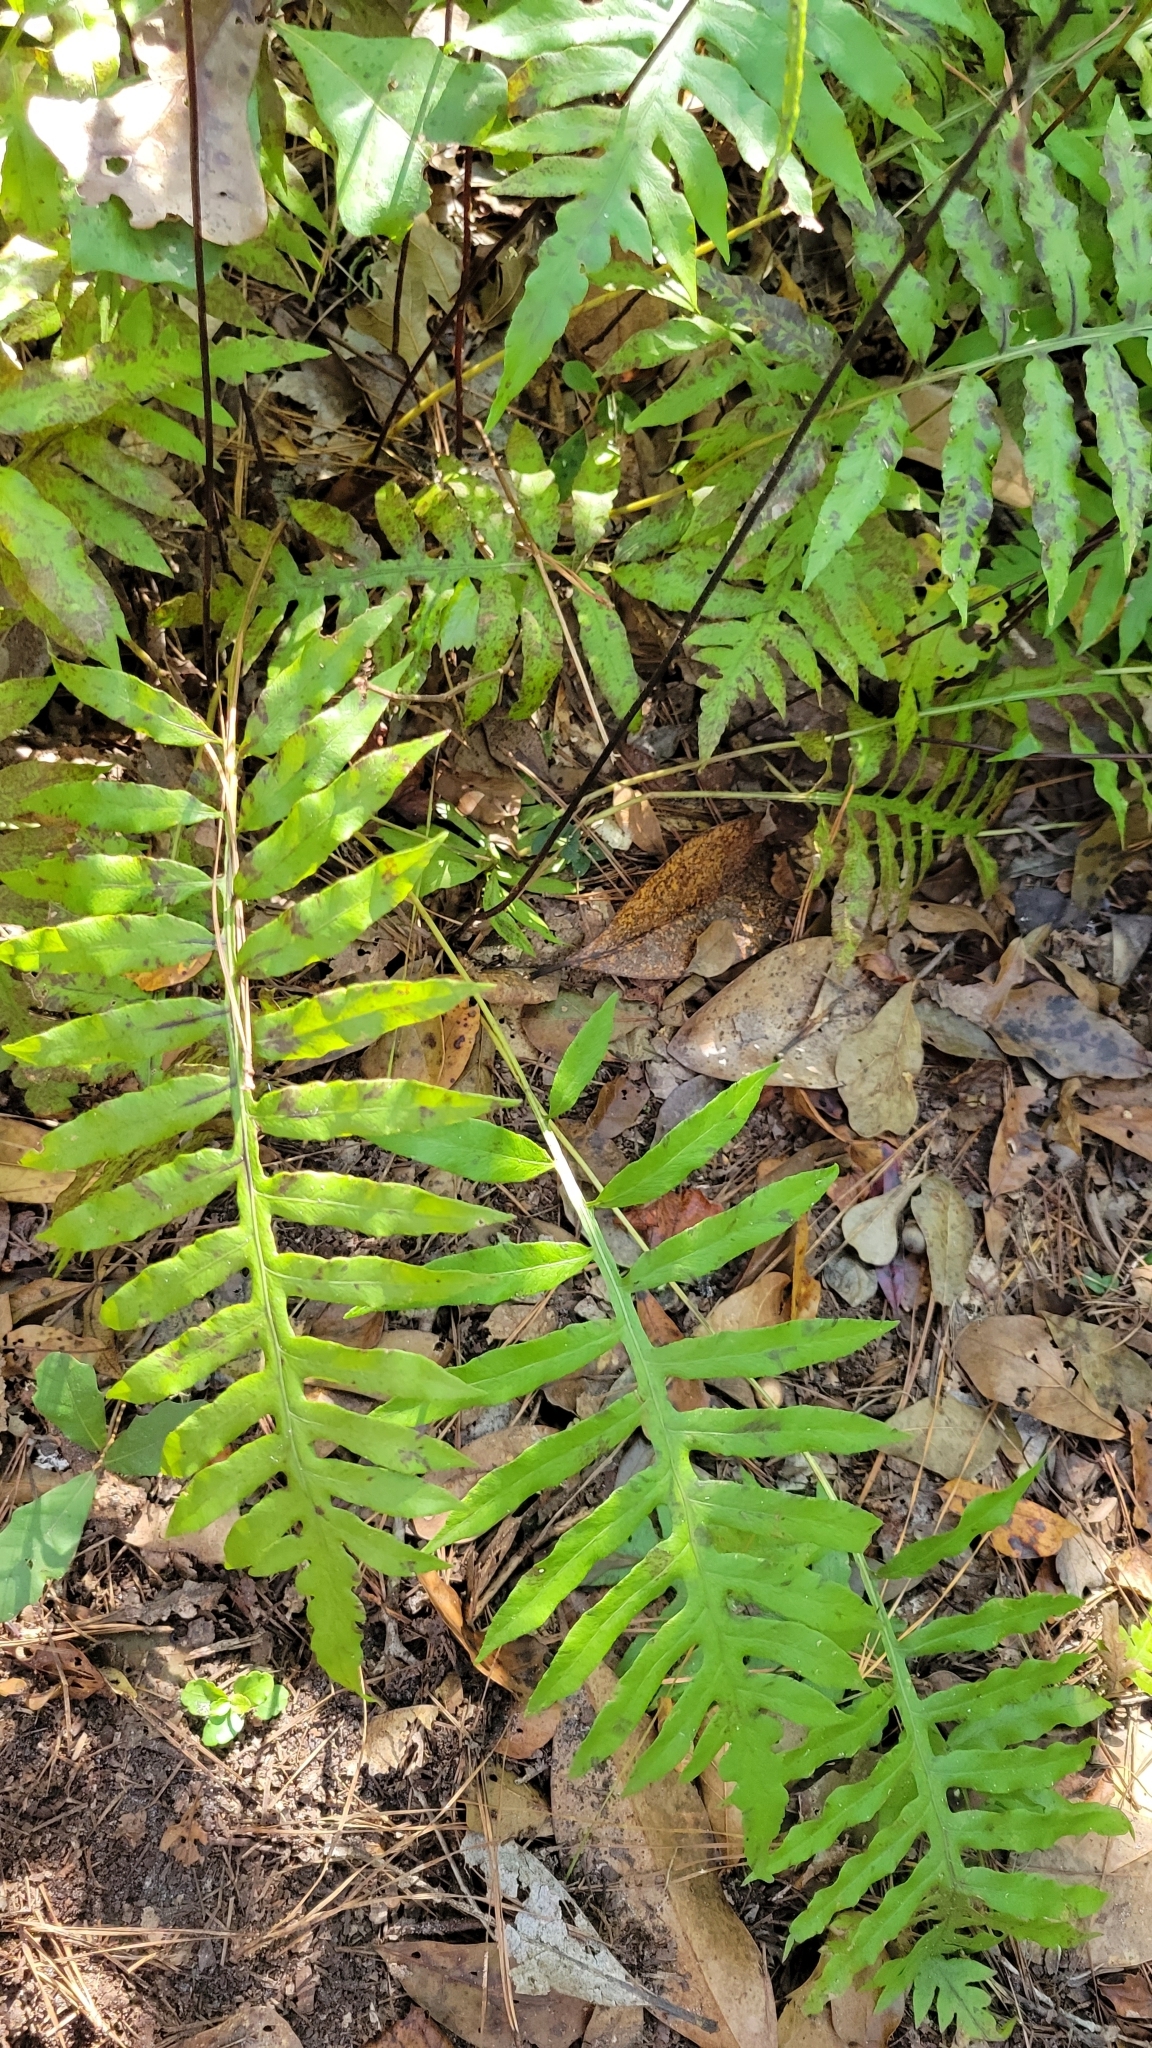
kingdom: Plantae
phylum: Tracheophyta
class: Polypodiopsida
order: Polypodiales
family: Blechnaceae
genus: Lorinseria
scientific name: Lorinseria areolata
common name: Dwarf chain fern
